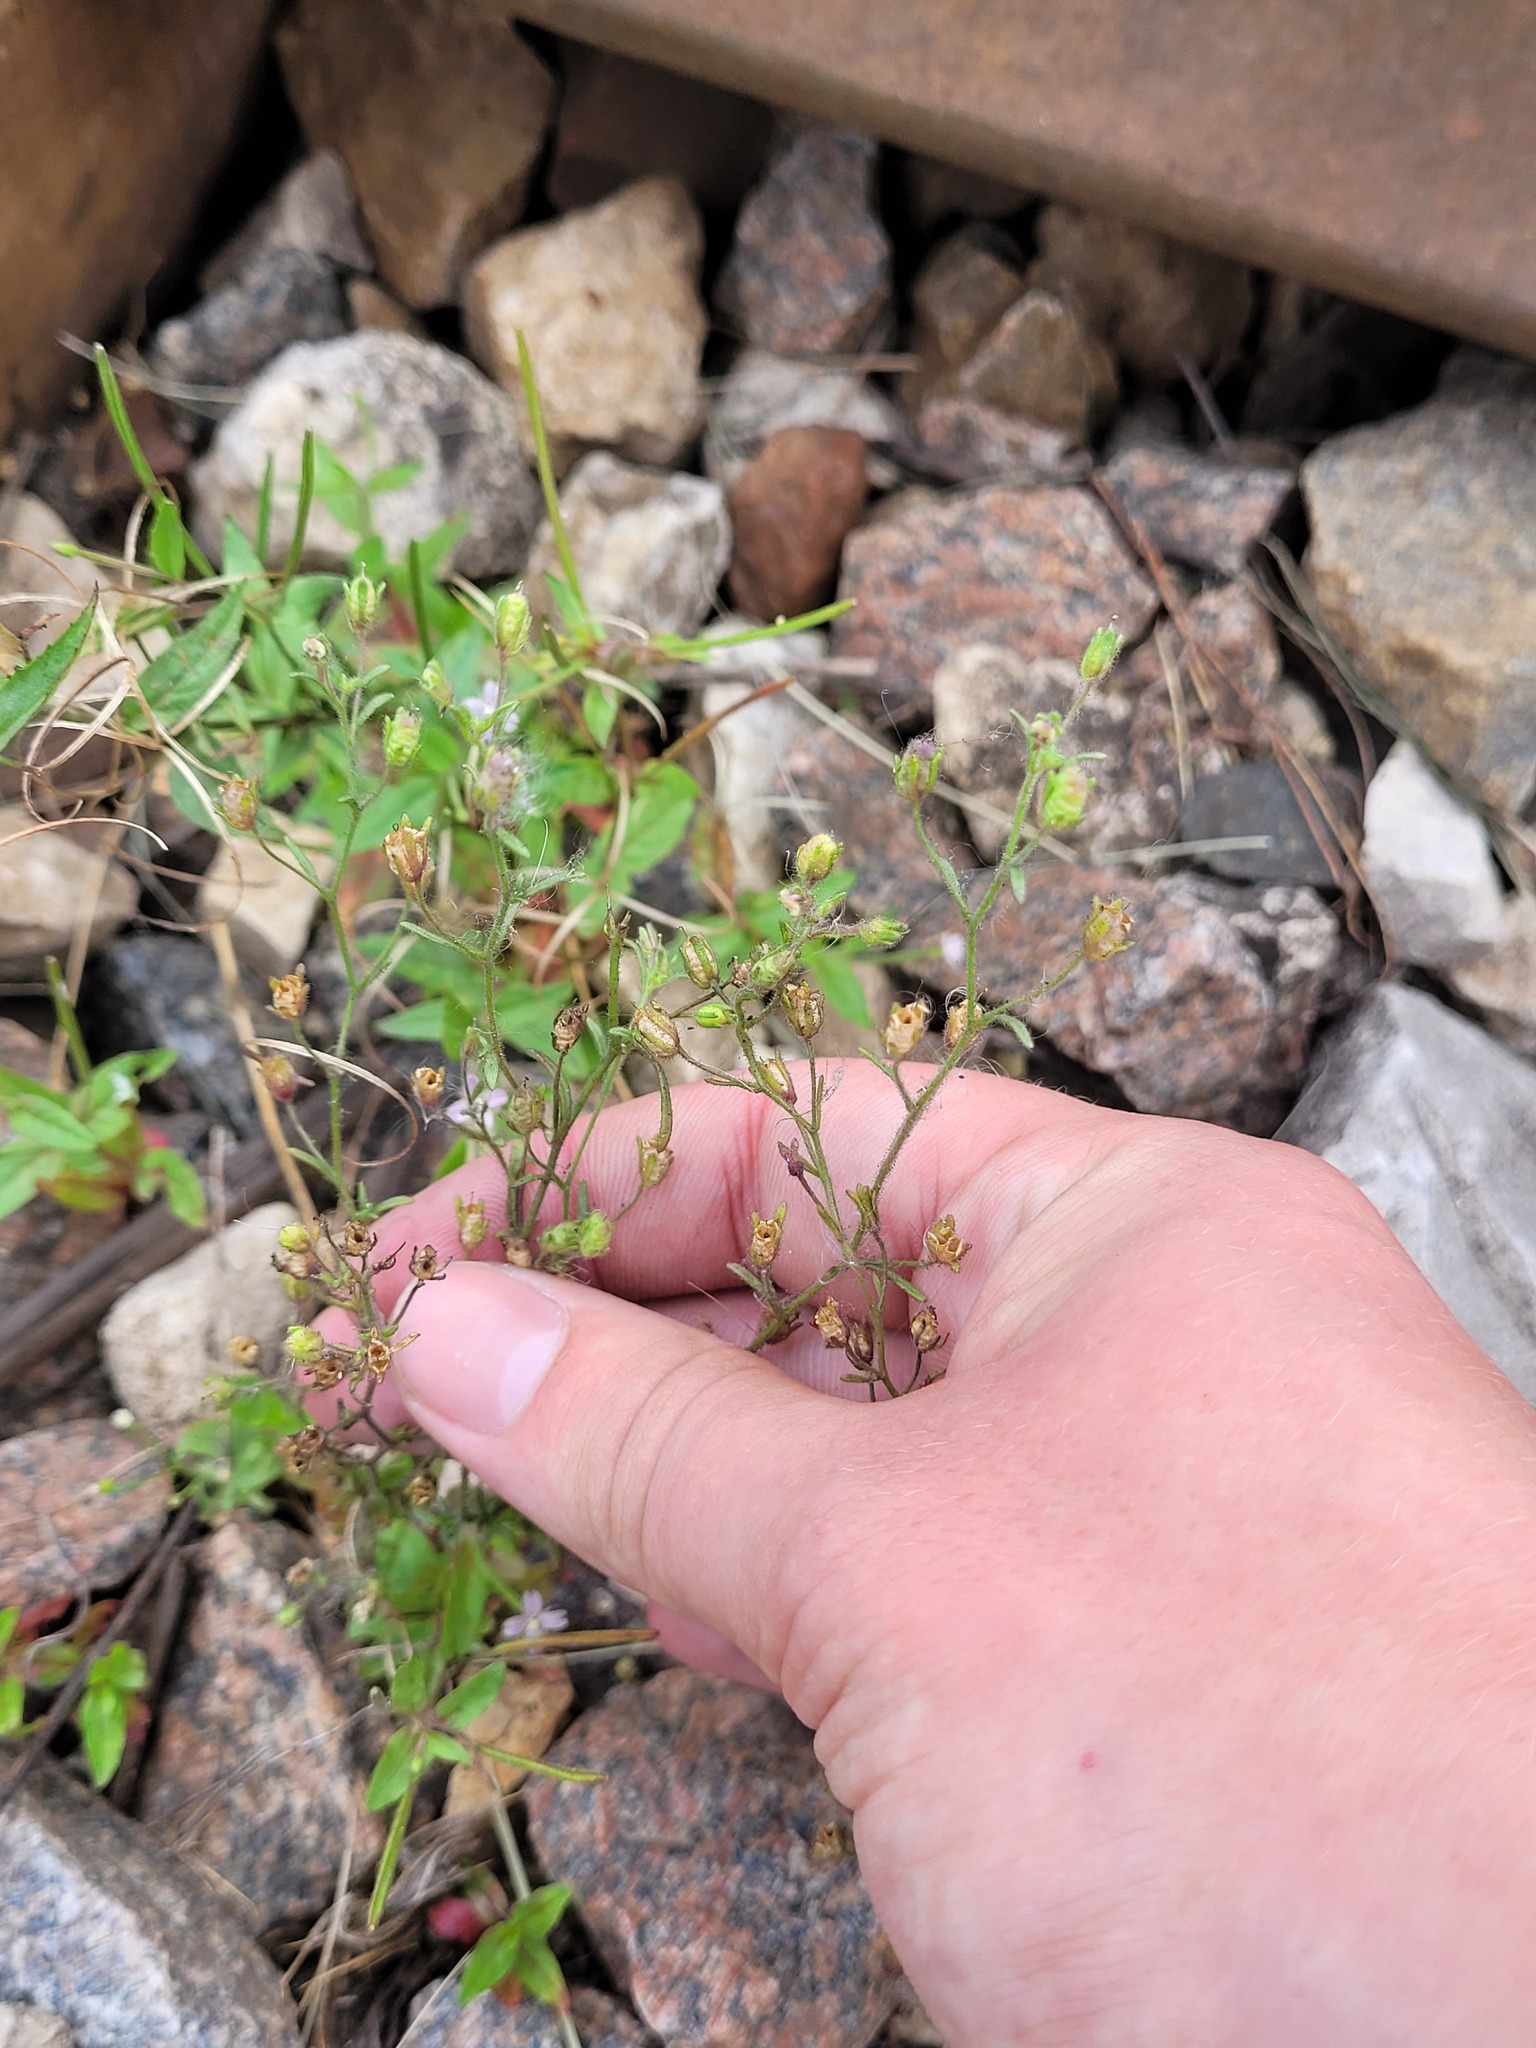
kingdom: Plantae
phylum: Tracheophyta
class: Magnoliopsida
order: Lamiales
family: Plantaginaceae
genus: Chaenorhinum
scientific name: Chaenorhinum minus
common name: Dwarf snapdragon
